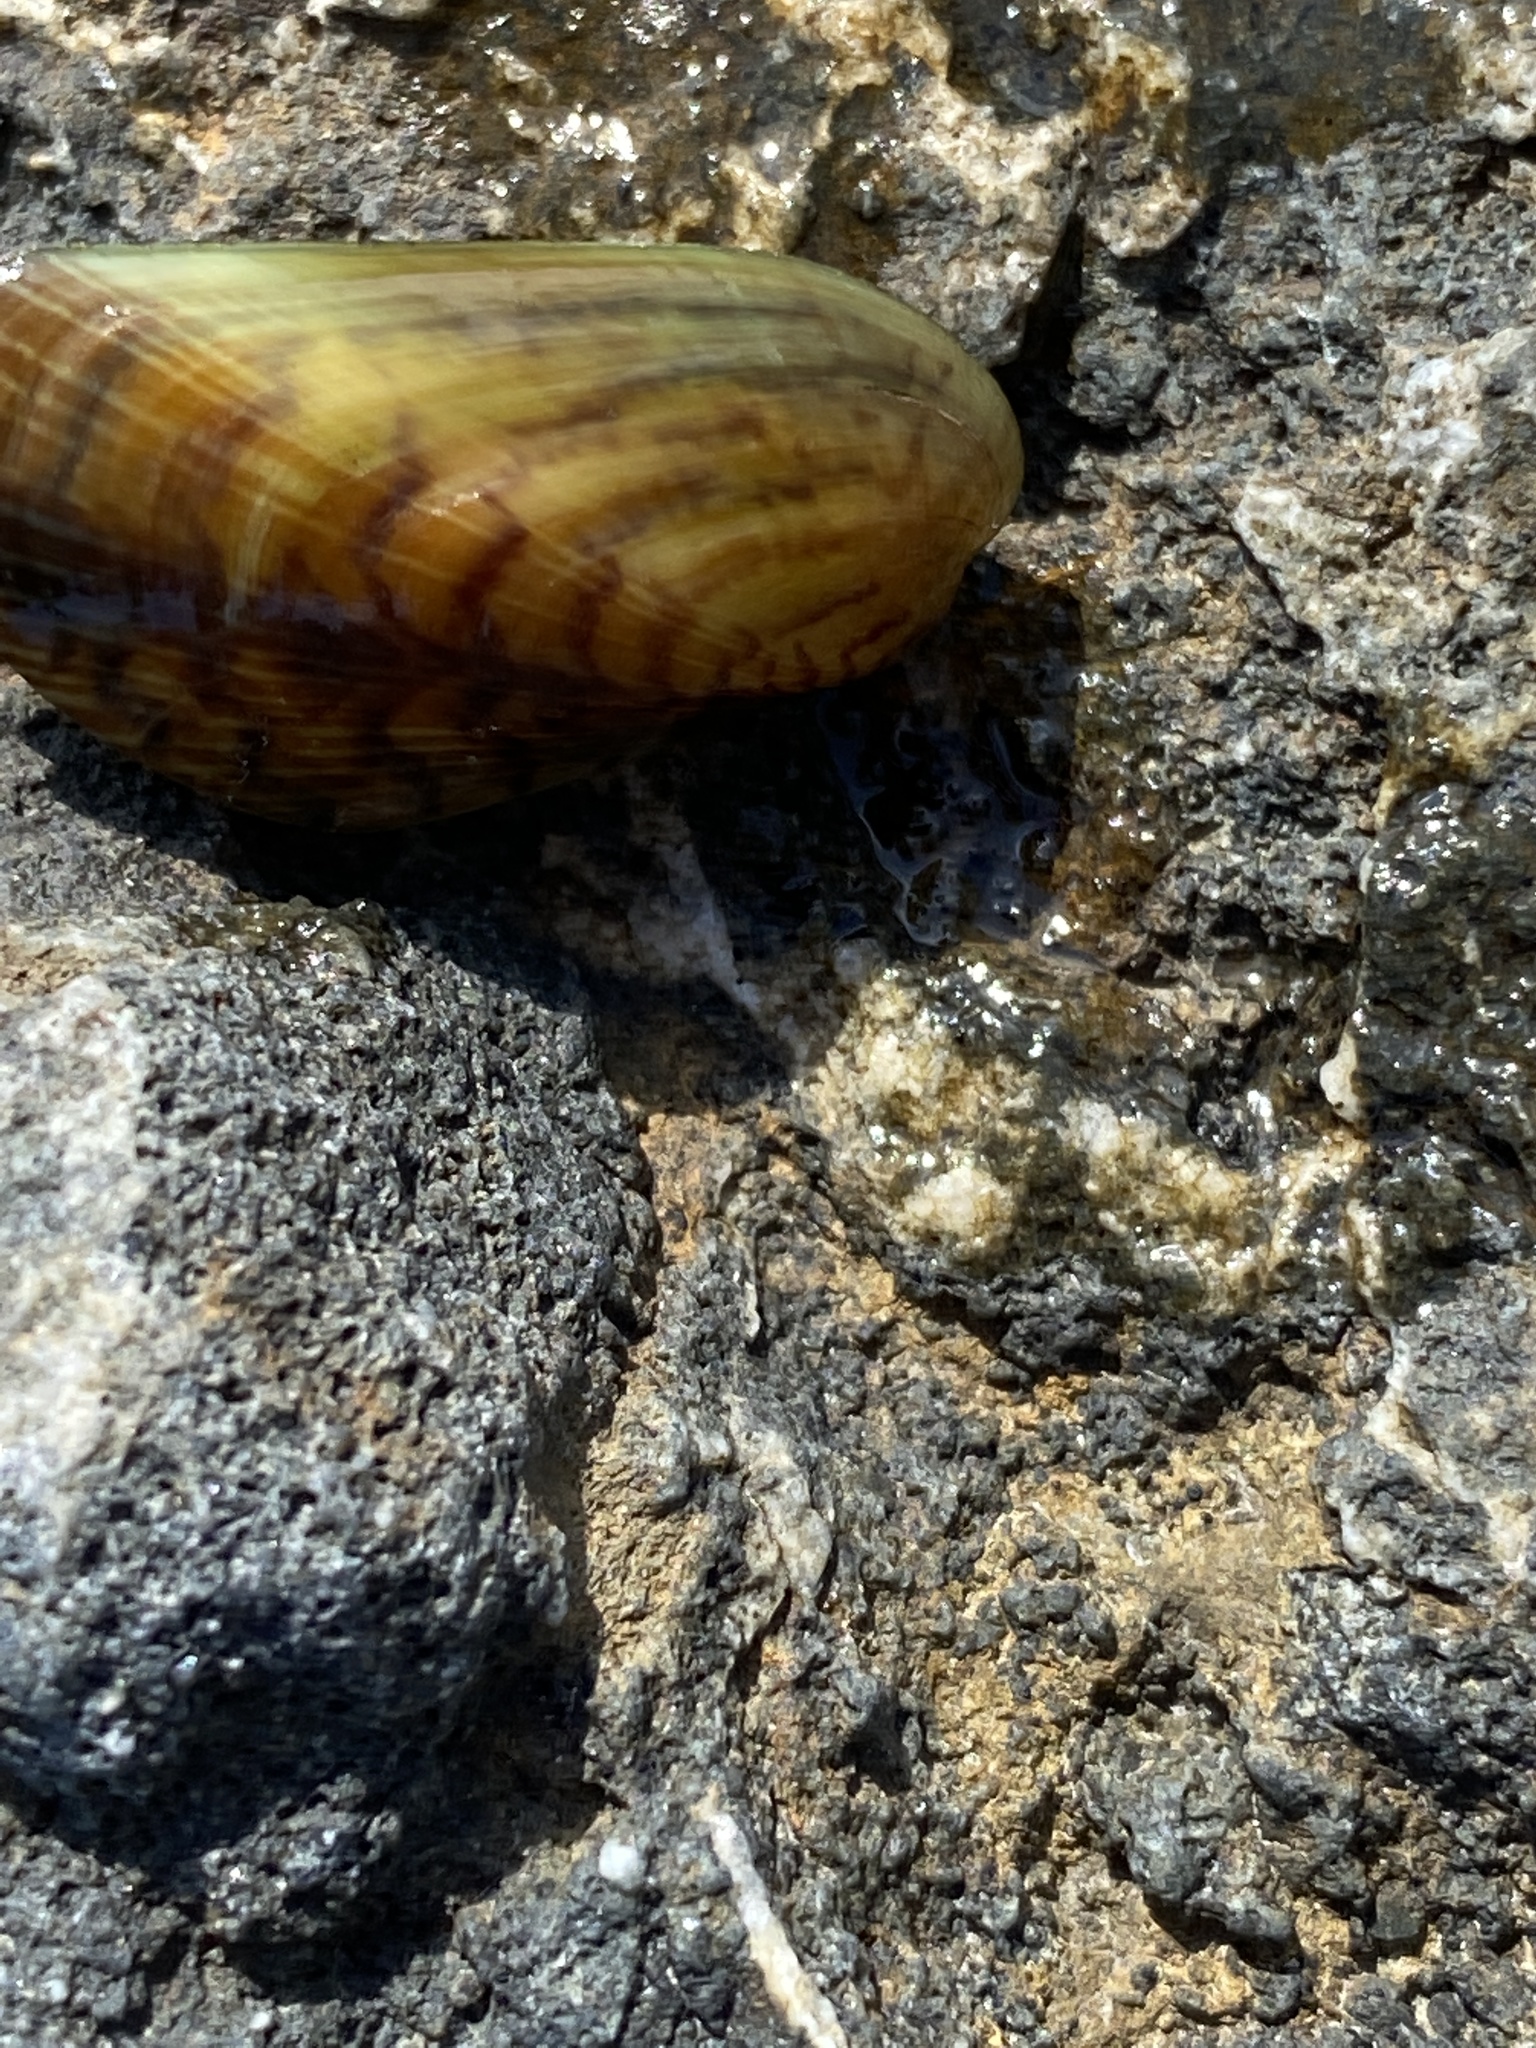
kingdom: Animalia
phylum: Mollusca
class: Bivalvia
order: Mytilida
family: Mytilidae
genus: Arcuatula
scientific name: Arcuatula senhousia
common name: Asian mussel
